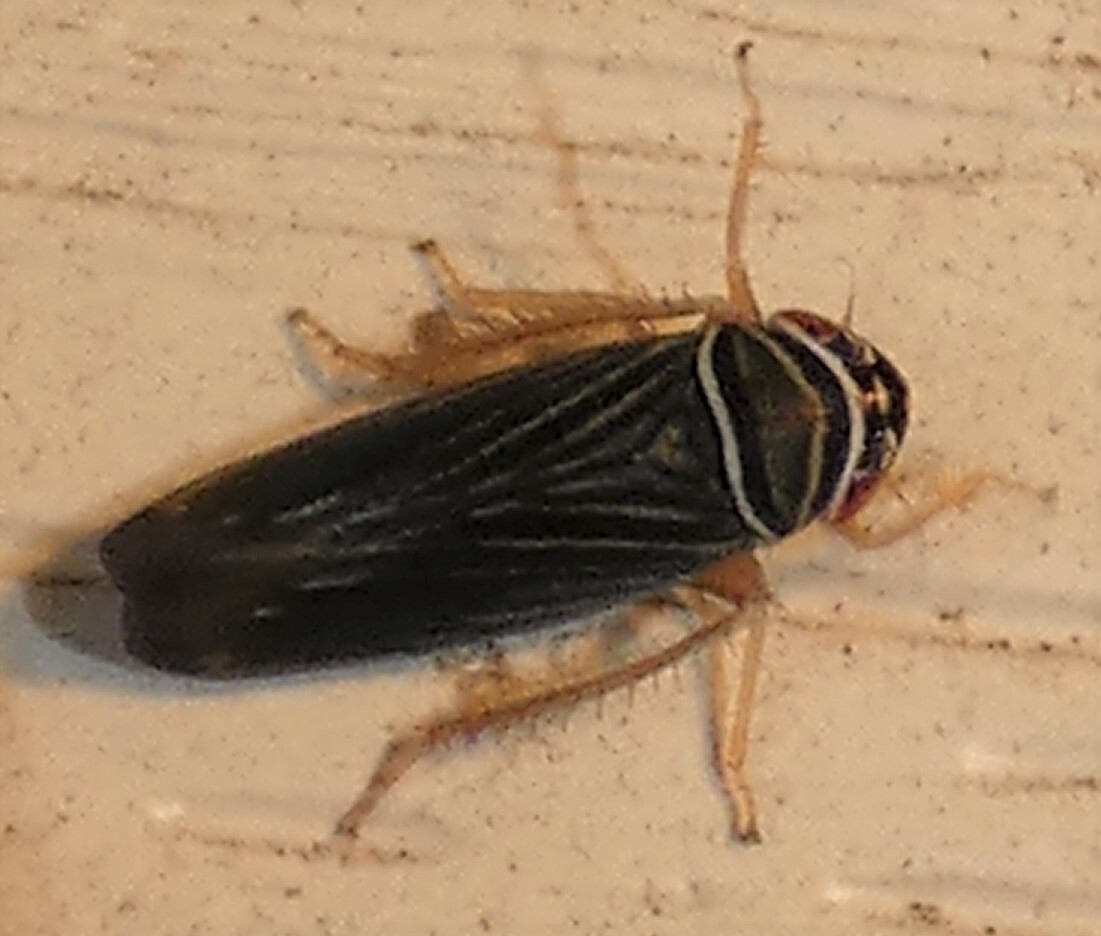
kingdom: Animalia
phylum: Arthropoda
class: Insecta
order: Hemiptera
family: Cicadellidae
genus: Tylozygus
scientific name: Tylozygus bifidus
